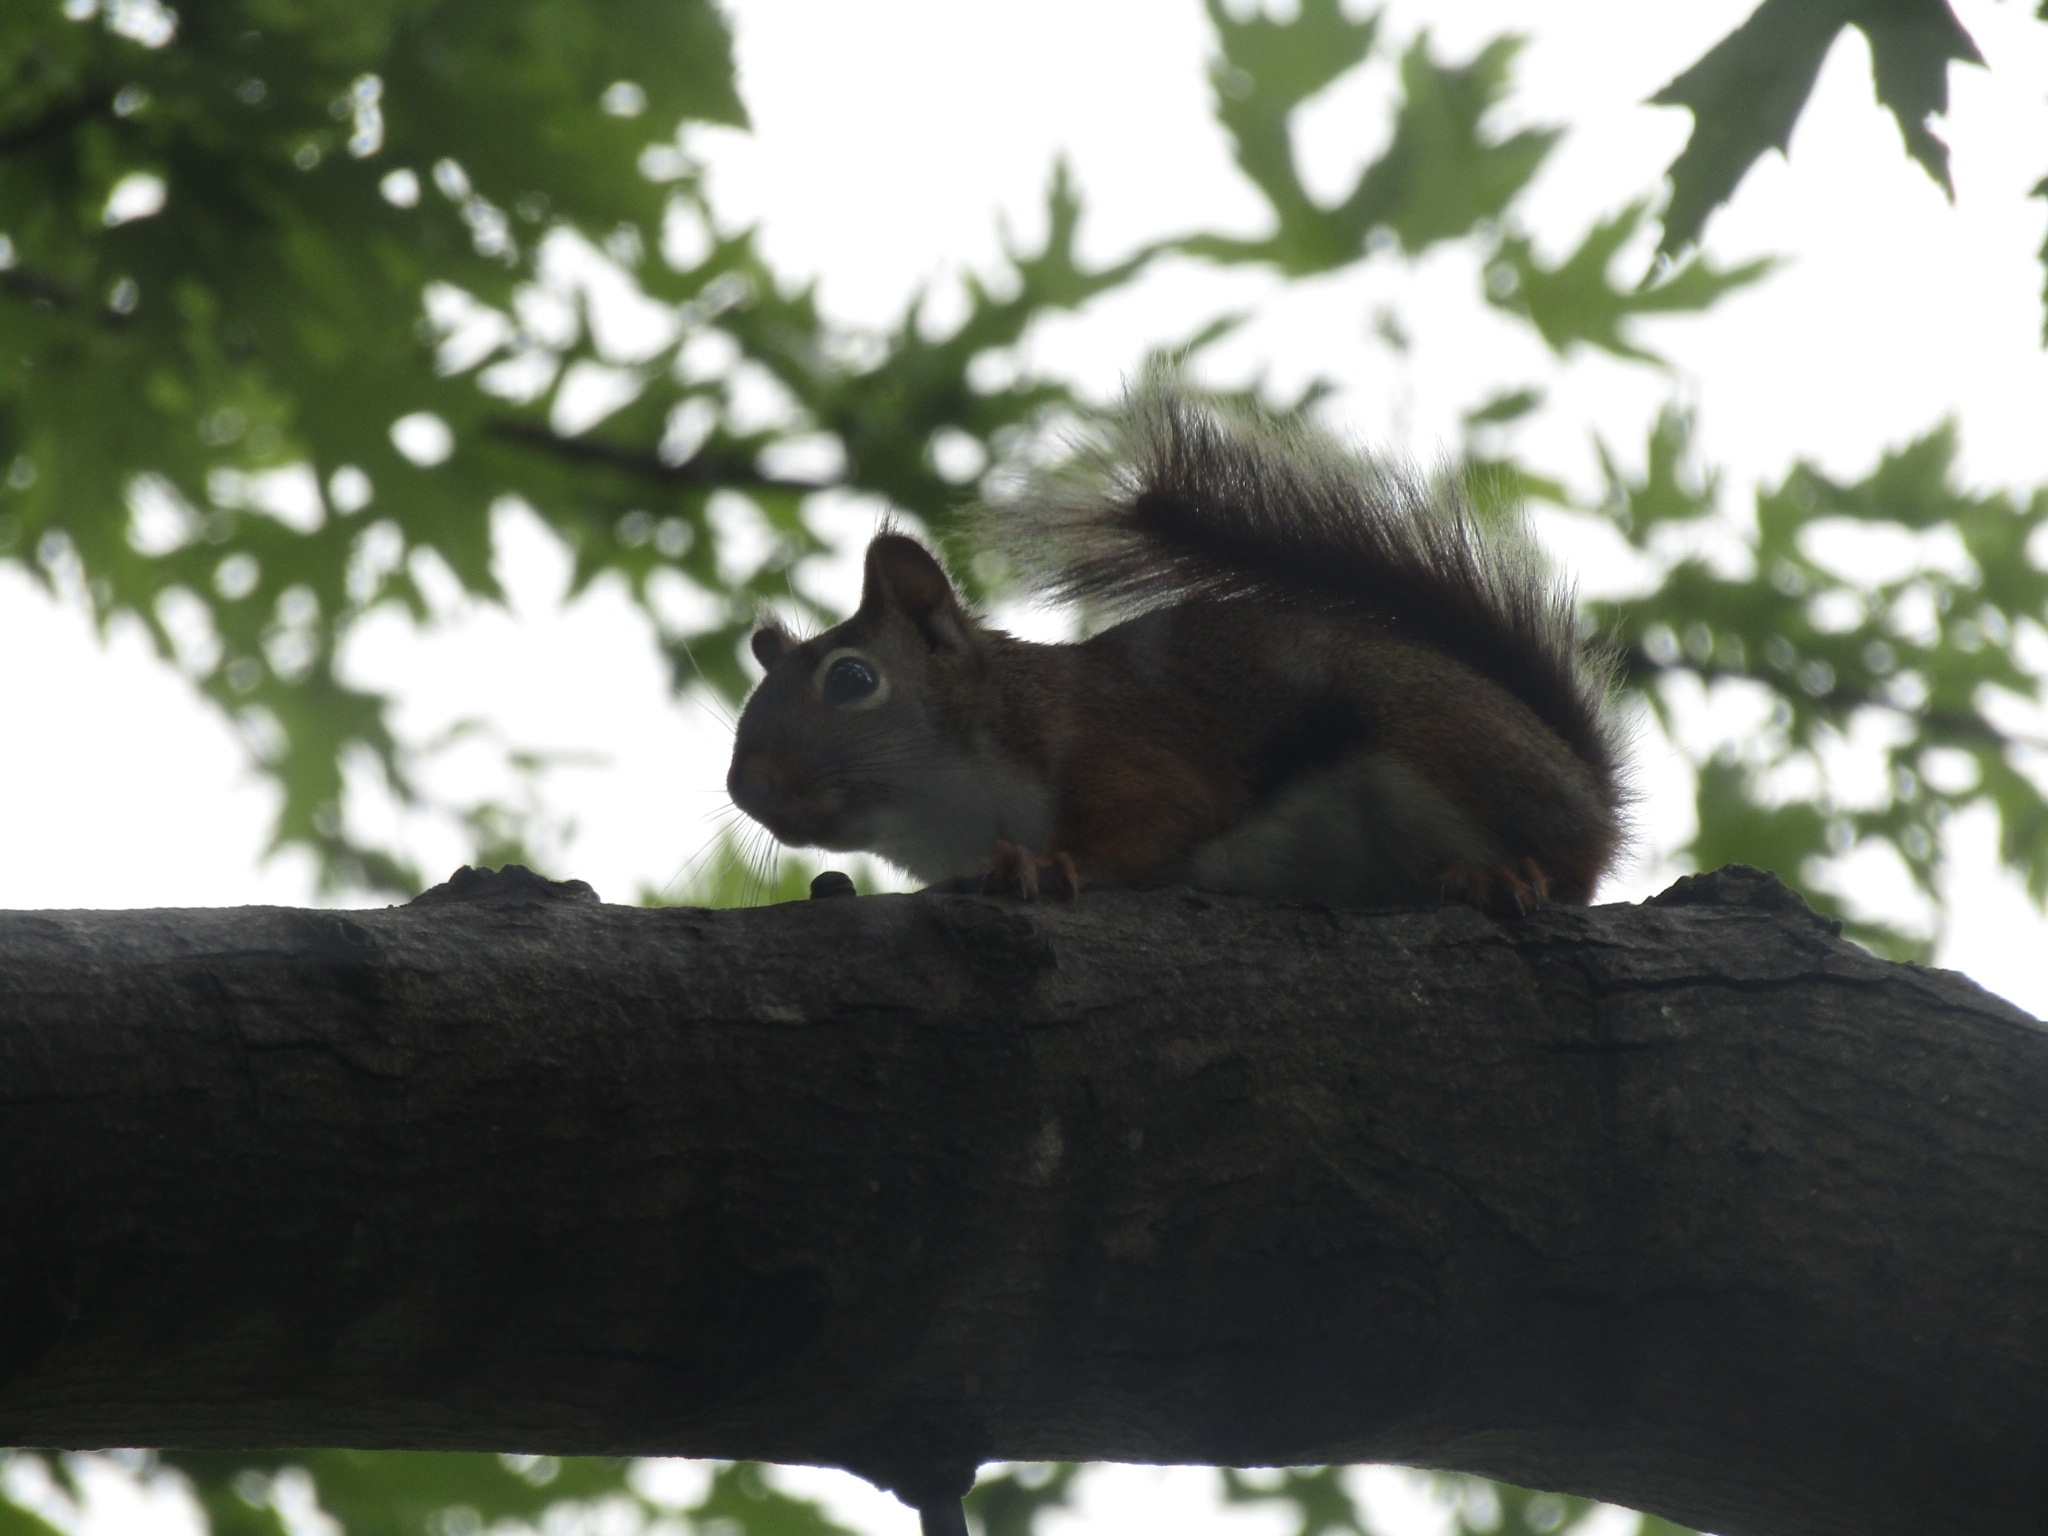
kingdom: Animalia
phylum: Chordata
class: Mammalia
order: Rodentia
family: Sciuridae
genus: Tamiasciurus
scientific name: Tamiasciurus hudsonicus
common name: Red squirrel
